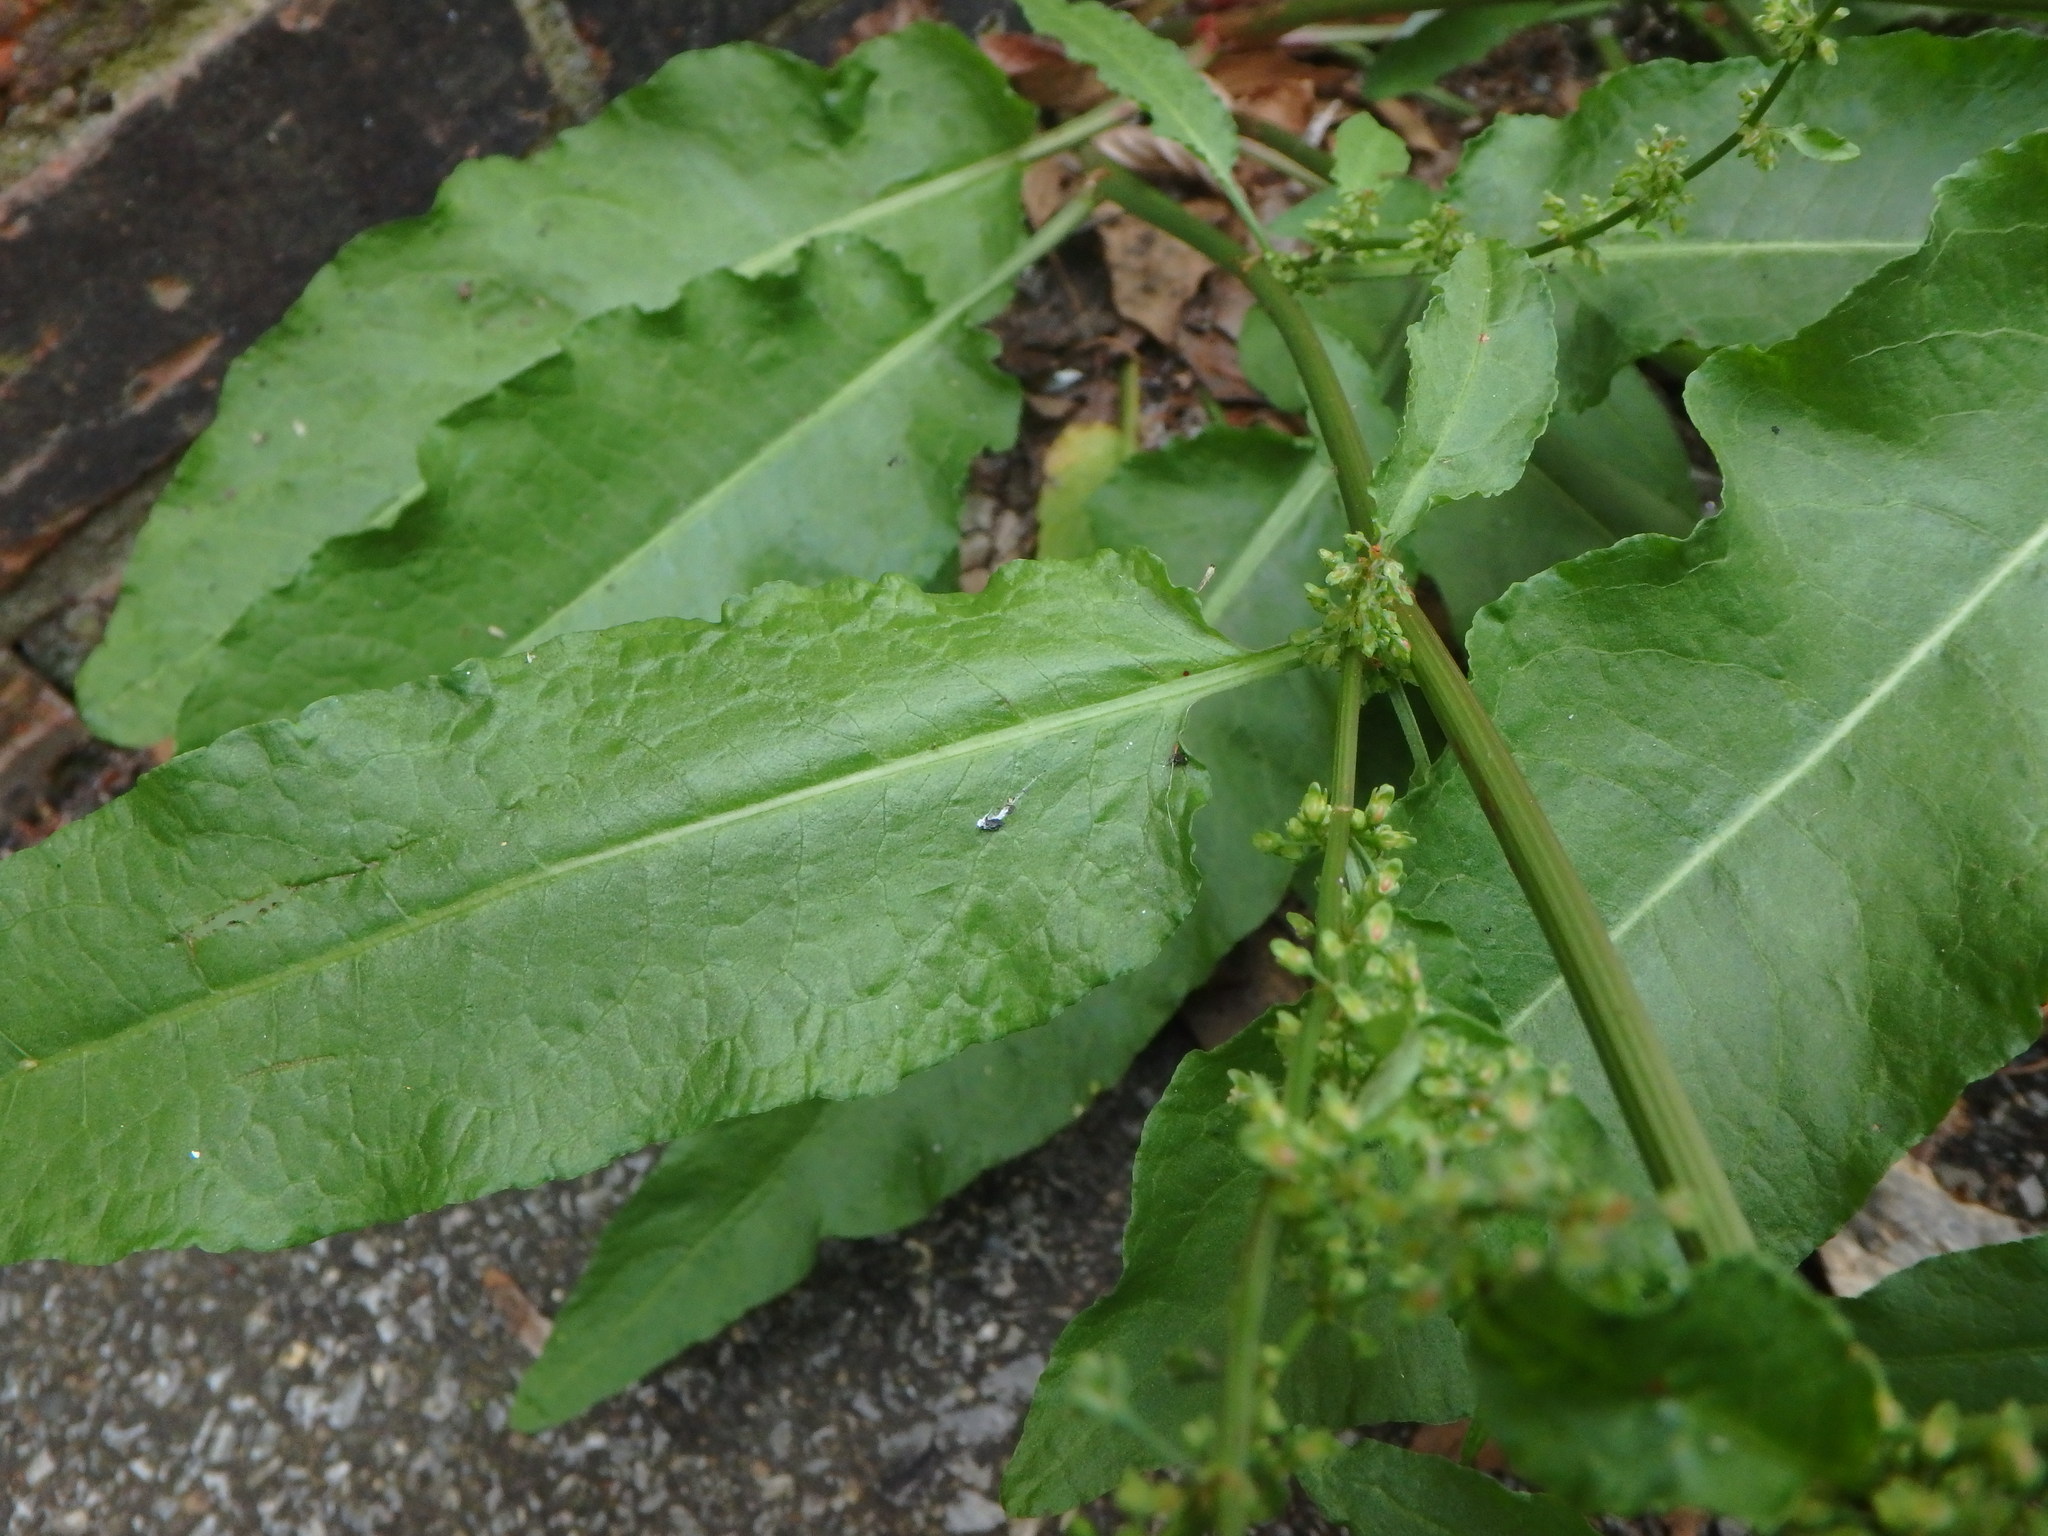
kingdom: Plantae
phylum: Tracheophyta
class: Magnoliopsida
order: Caryophyllales
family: Polygonaceae
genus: Rumex
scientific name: Rumex sanguineus
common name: Wood dock
